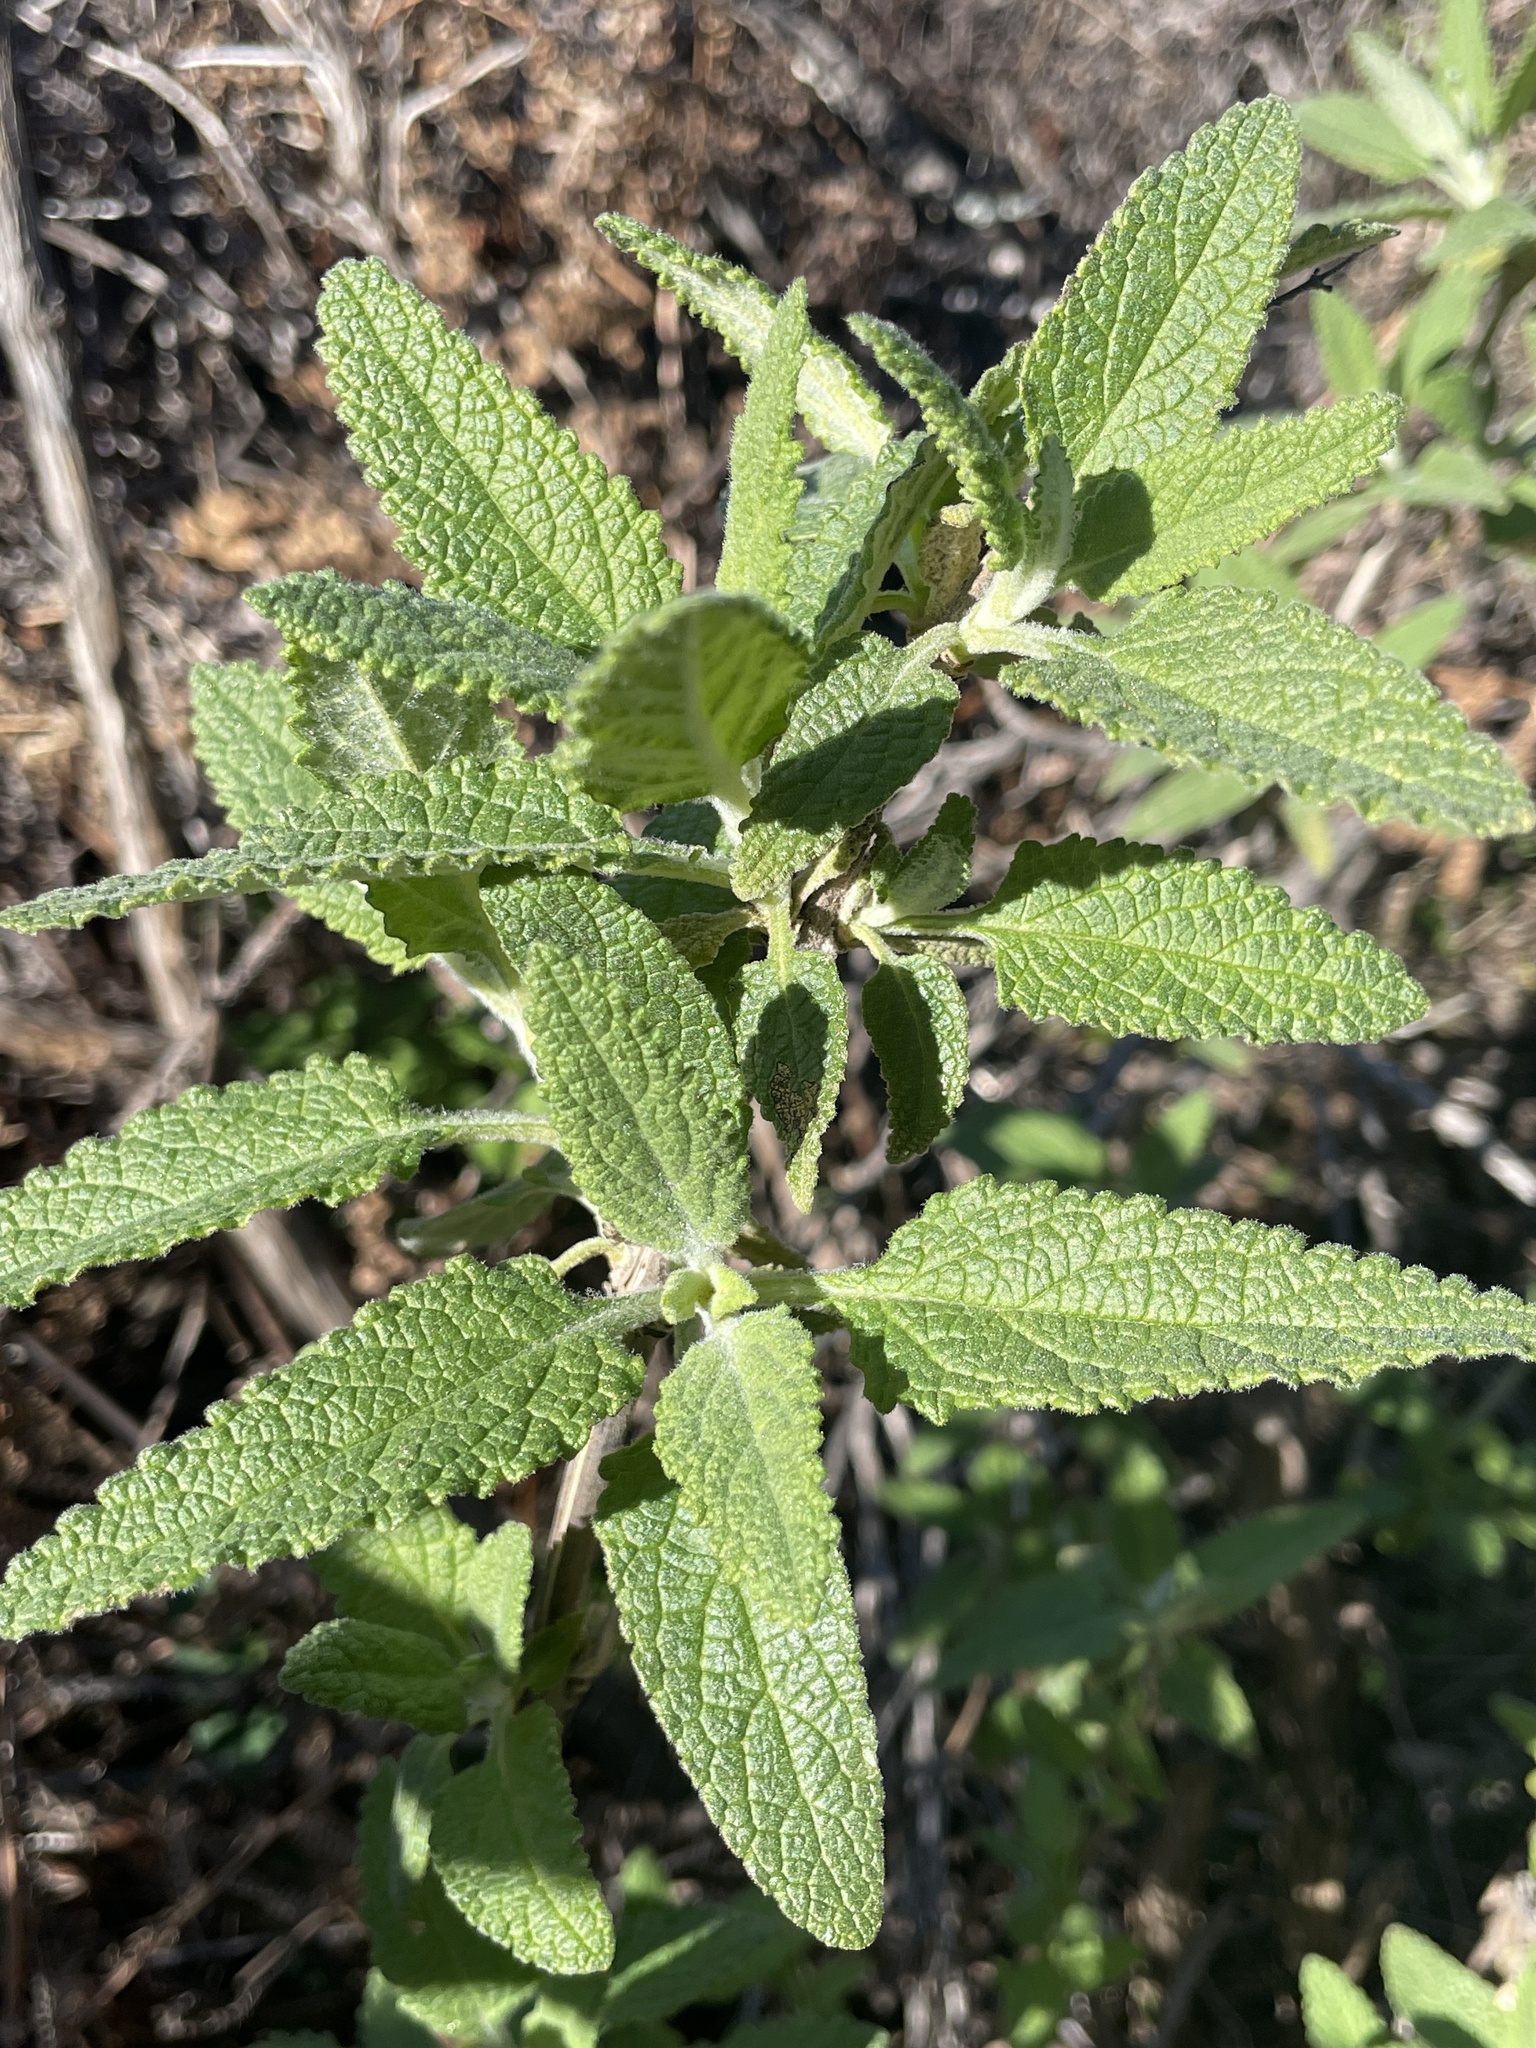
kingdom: Plantae
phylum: Tracheophyta
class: Magnoliopsida
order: Lamiales
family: Lamiaceae
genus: Lepechinia
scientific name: Lepechinia calycina
